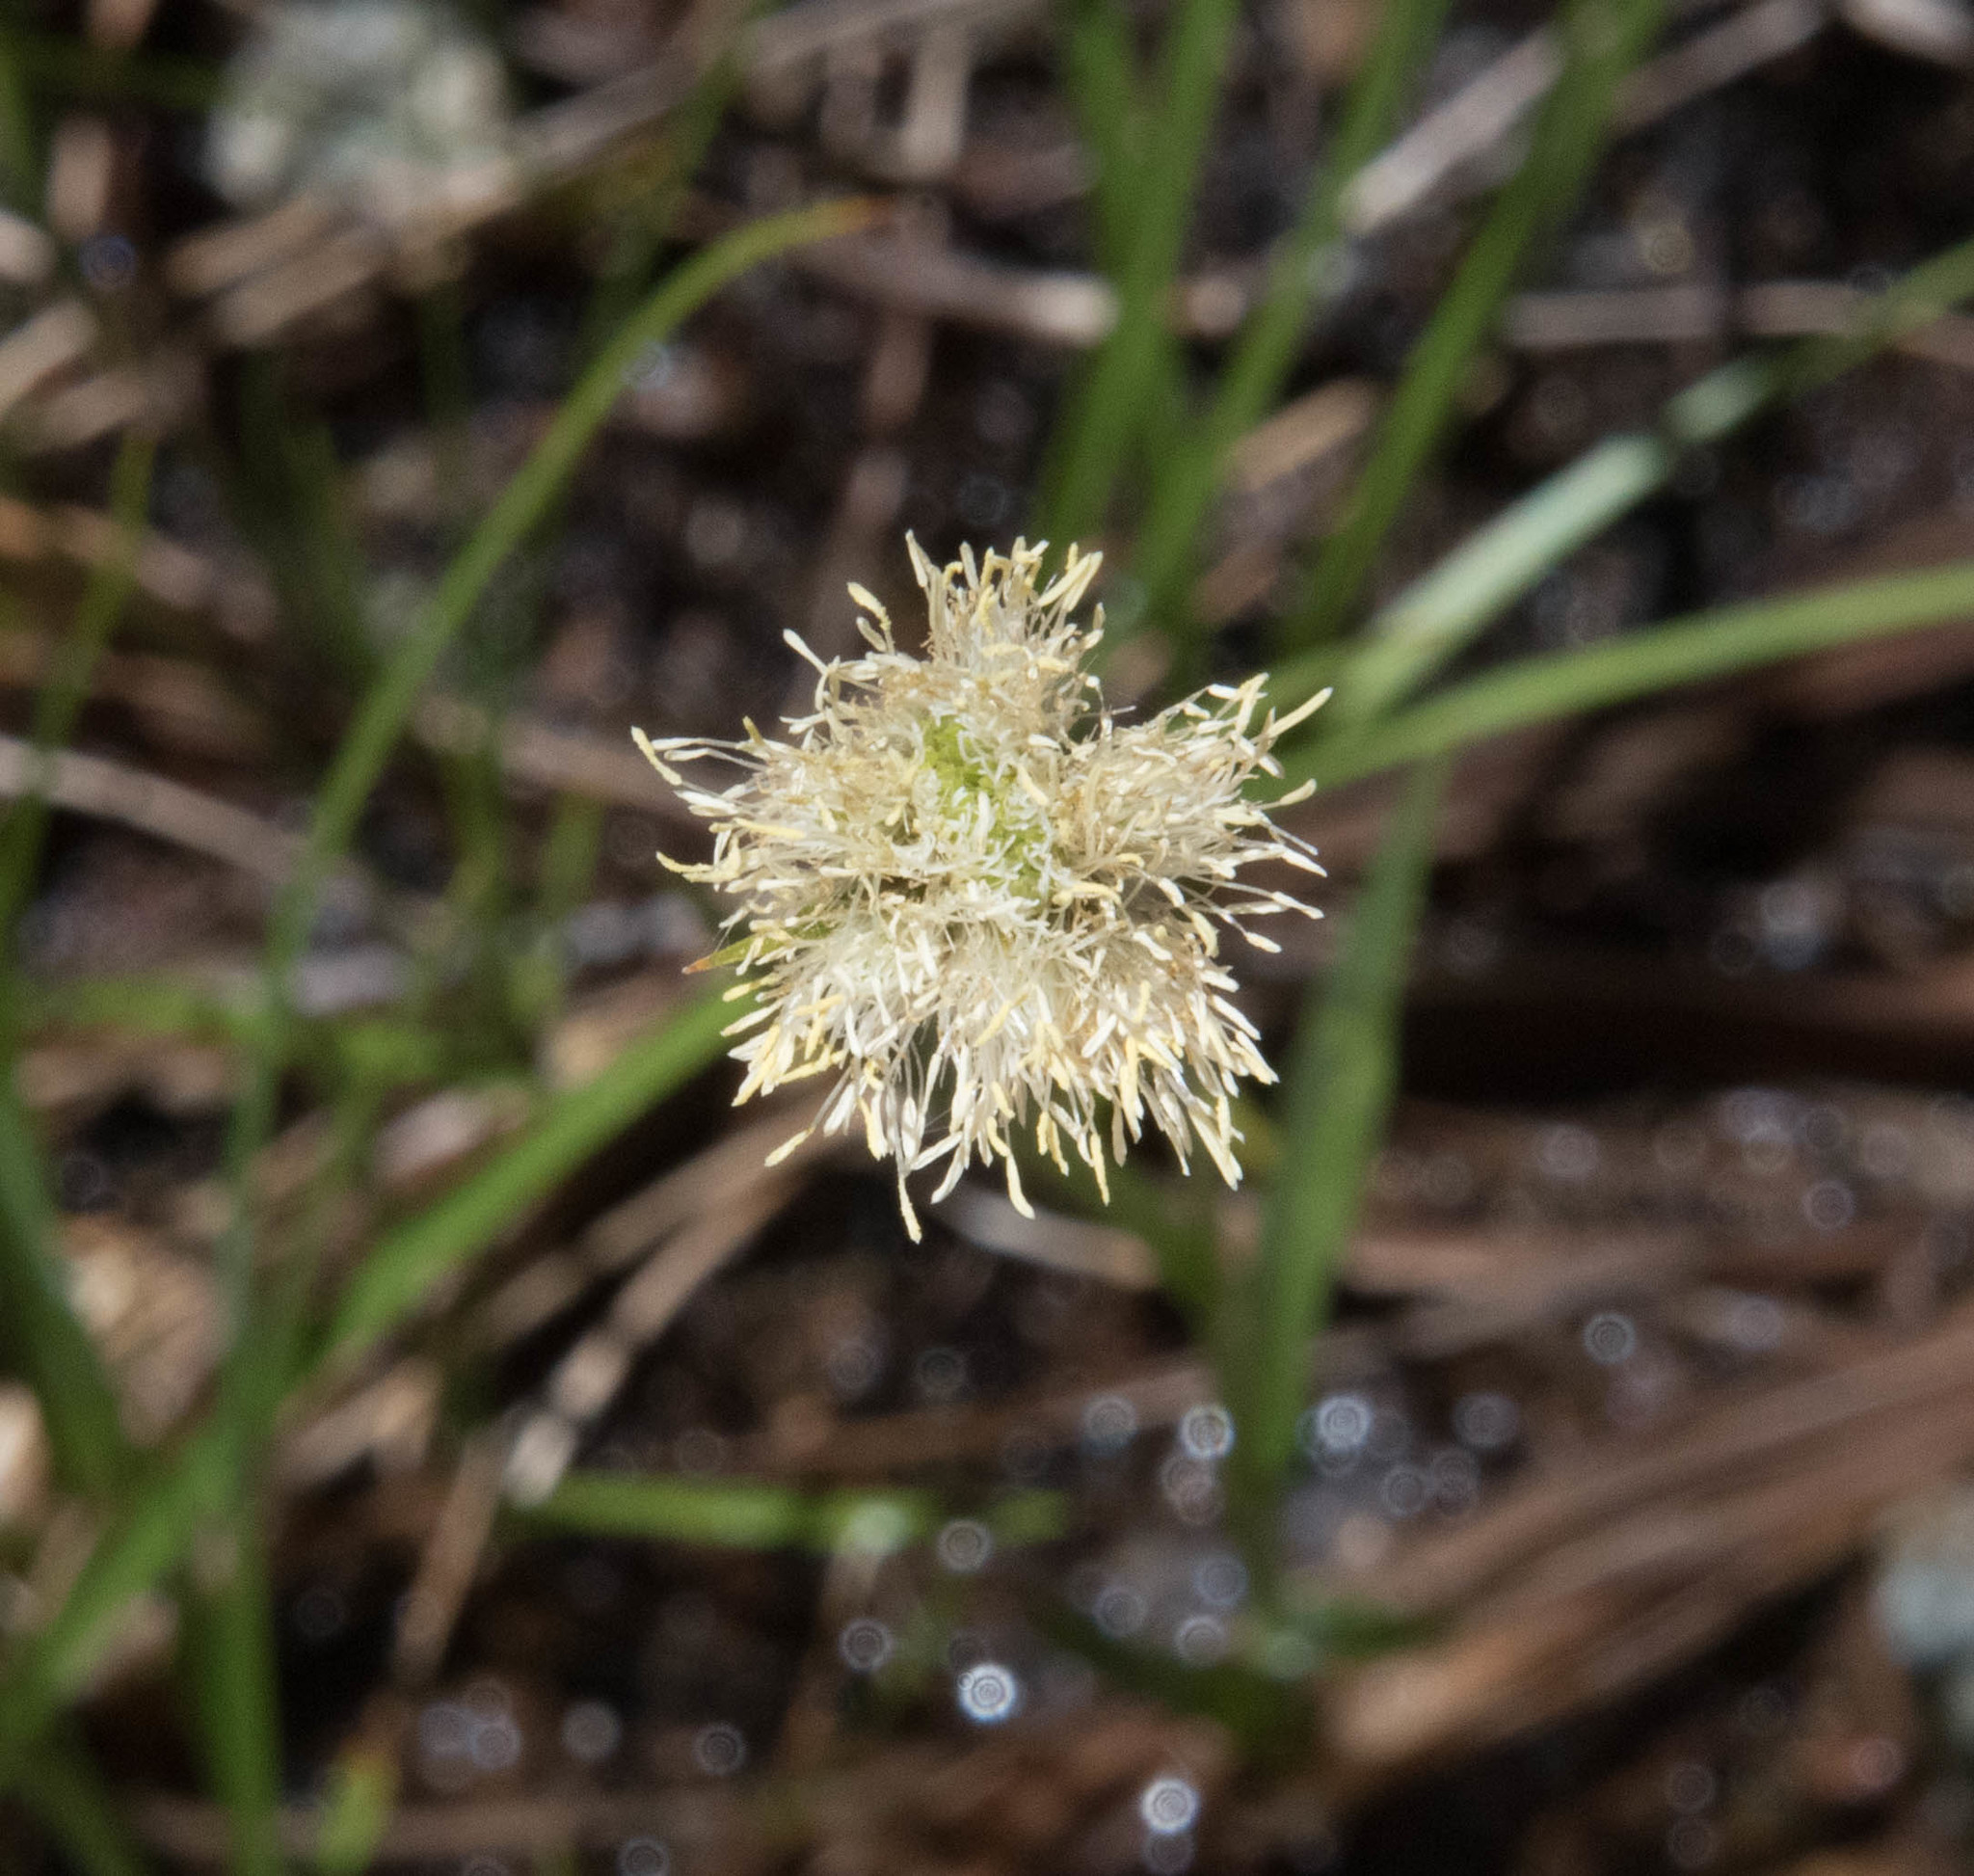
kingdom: Plantae
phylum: Tracheophyta
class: Liliopsida
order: Poales
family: Cyperaceae
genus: Calliscirpus
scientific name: Calliscirpus criniger
